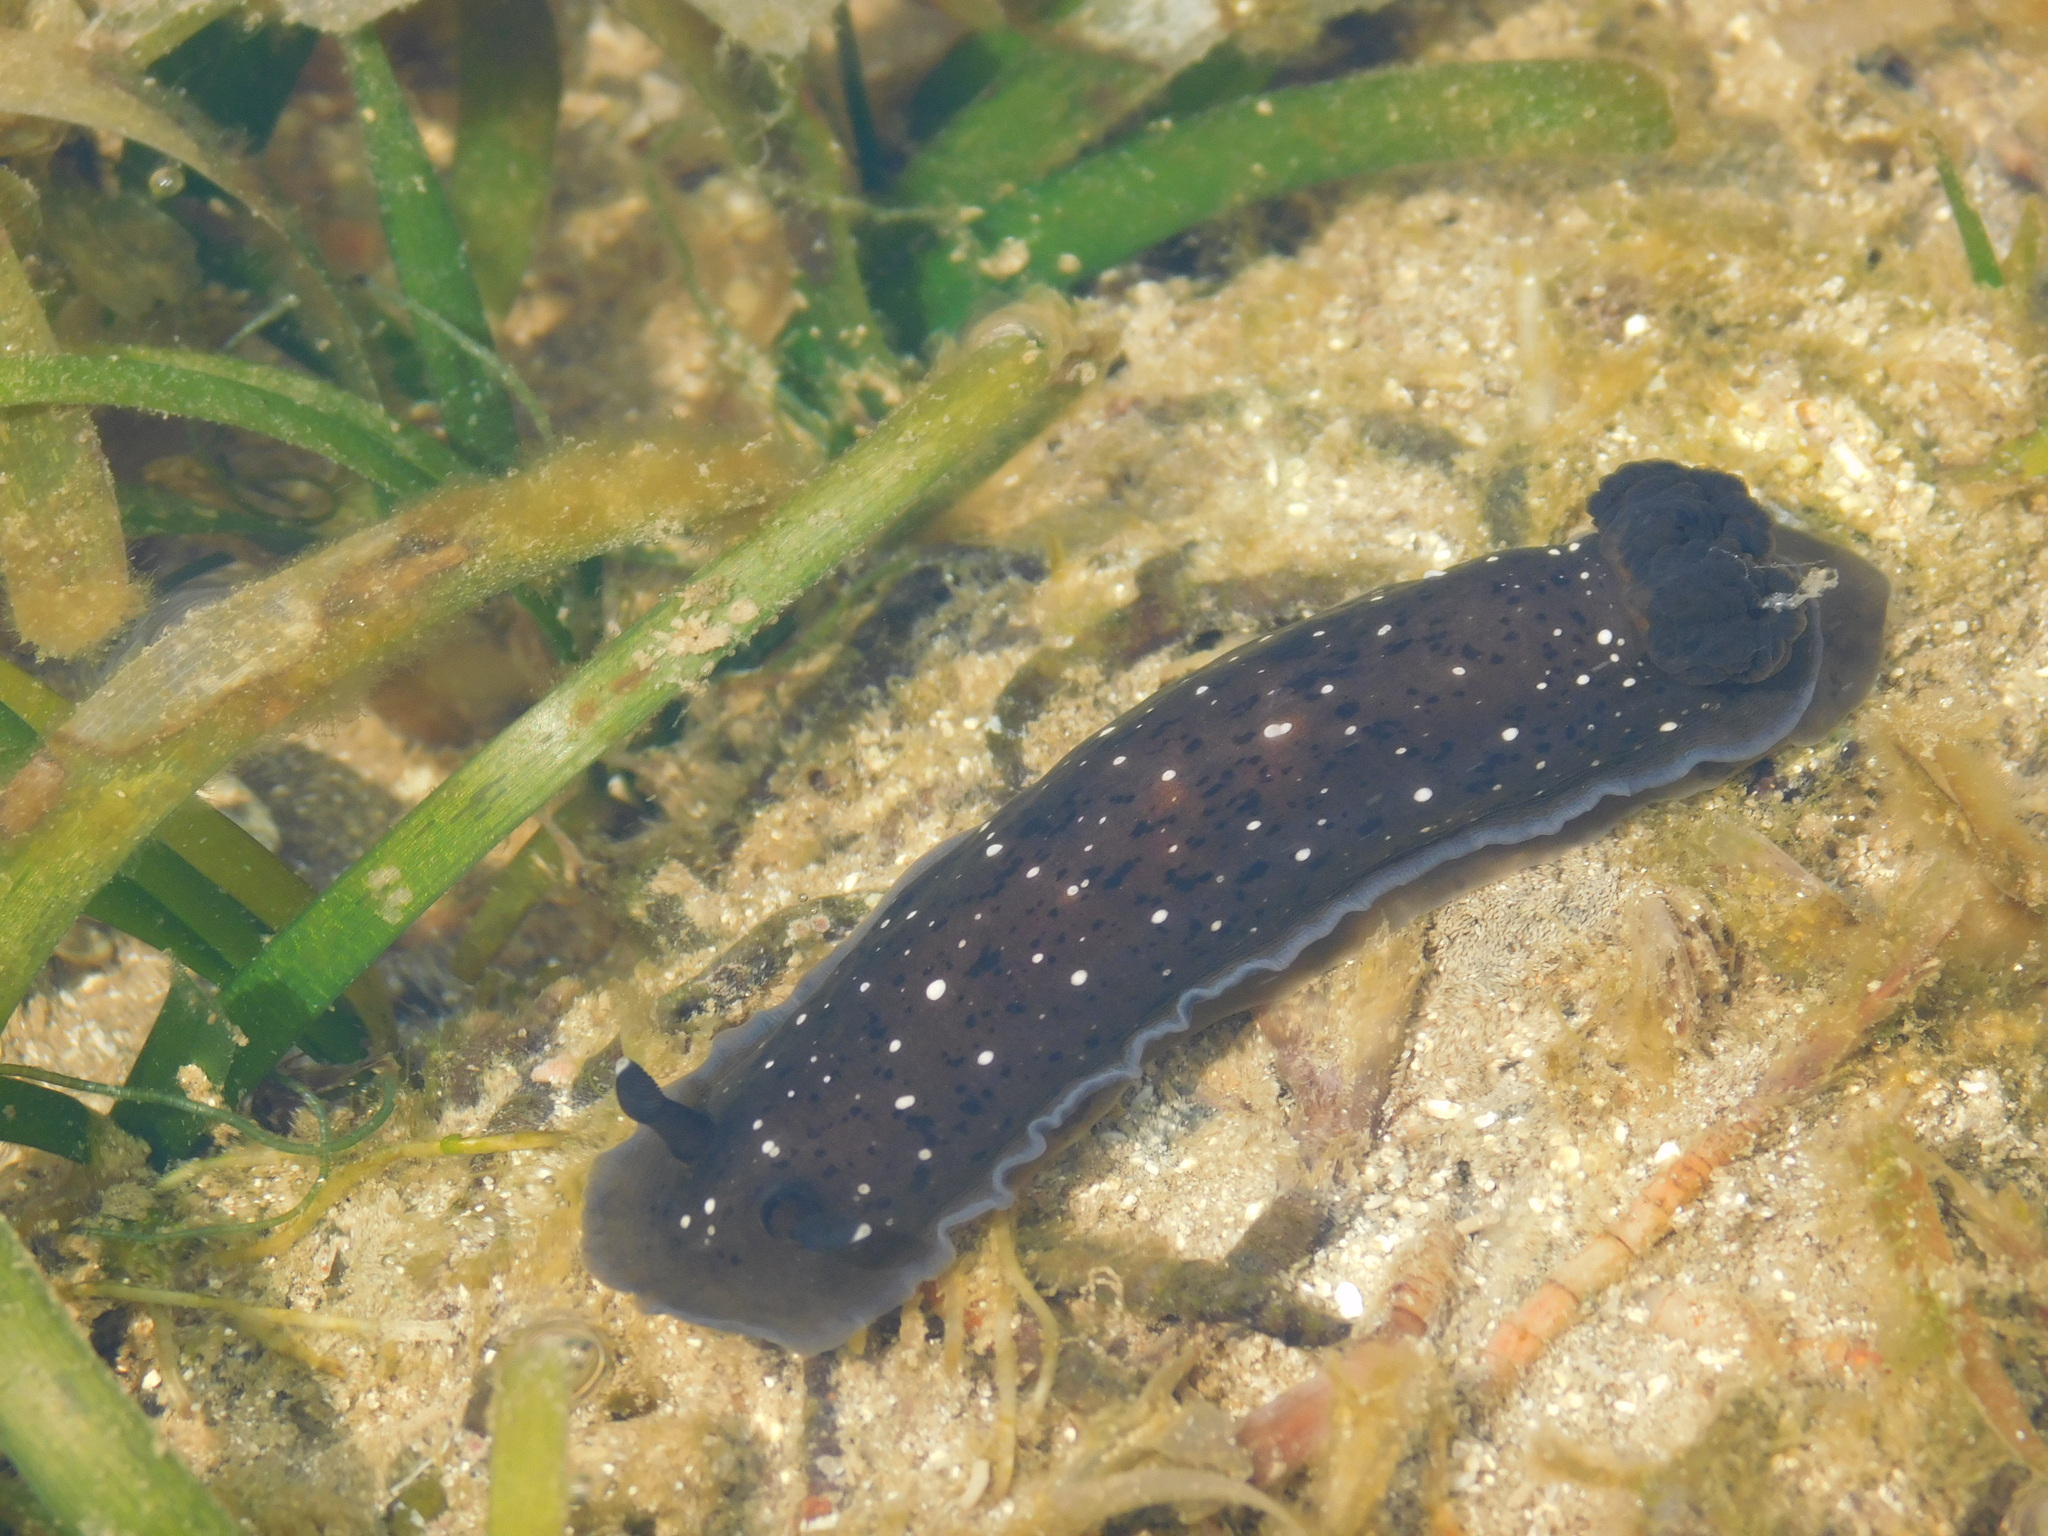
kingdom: Animalia
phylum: Mollusca
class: Gastropoda
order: Nudibranchia
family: Dendrodorididae
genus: Dendrodoris
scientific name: Dendrodoris nigra
